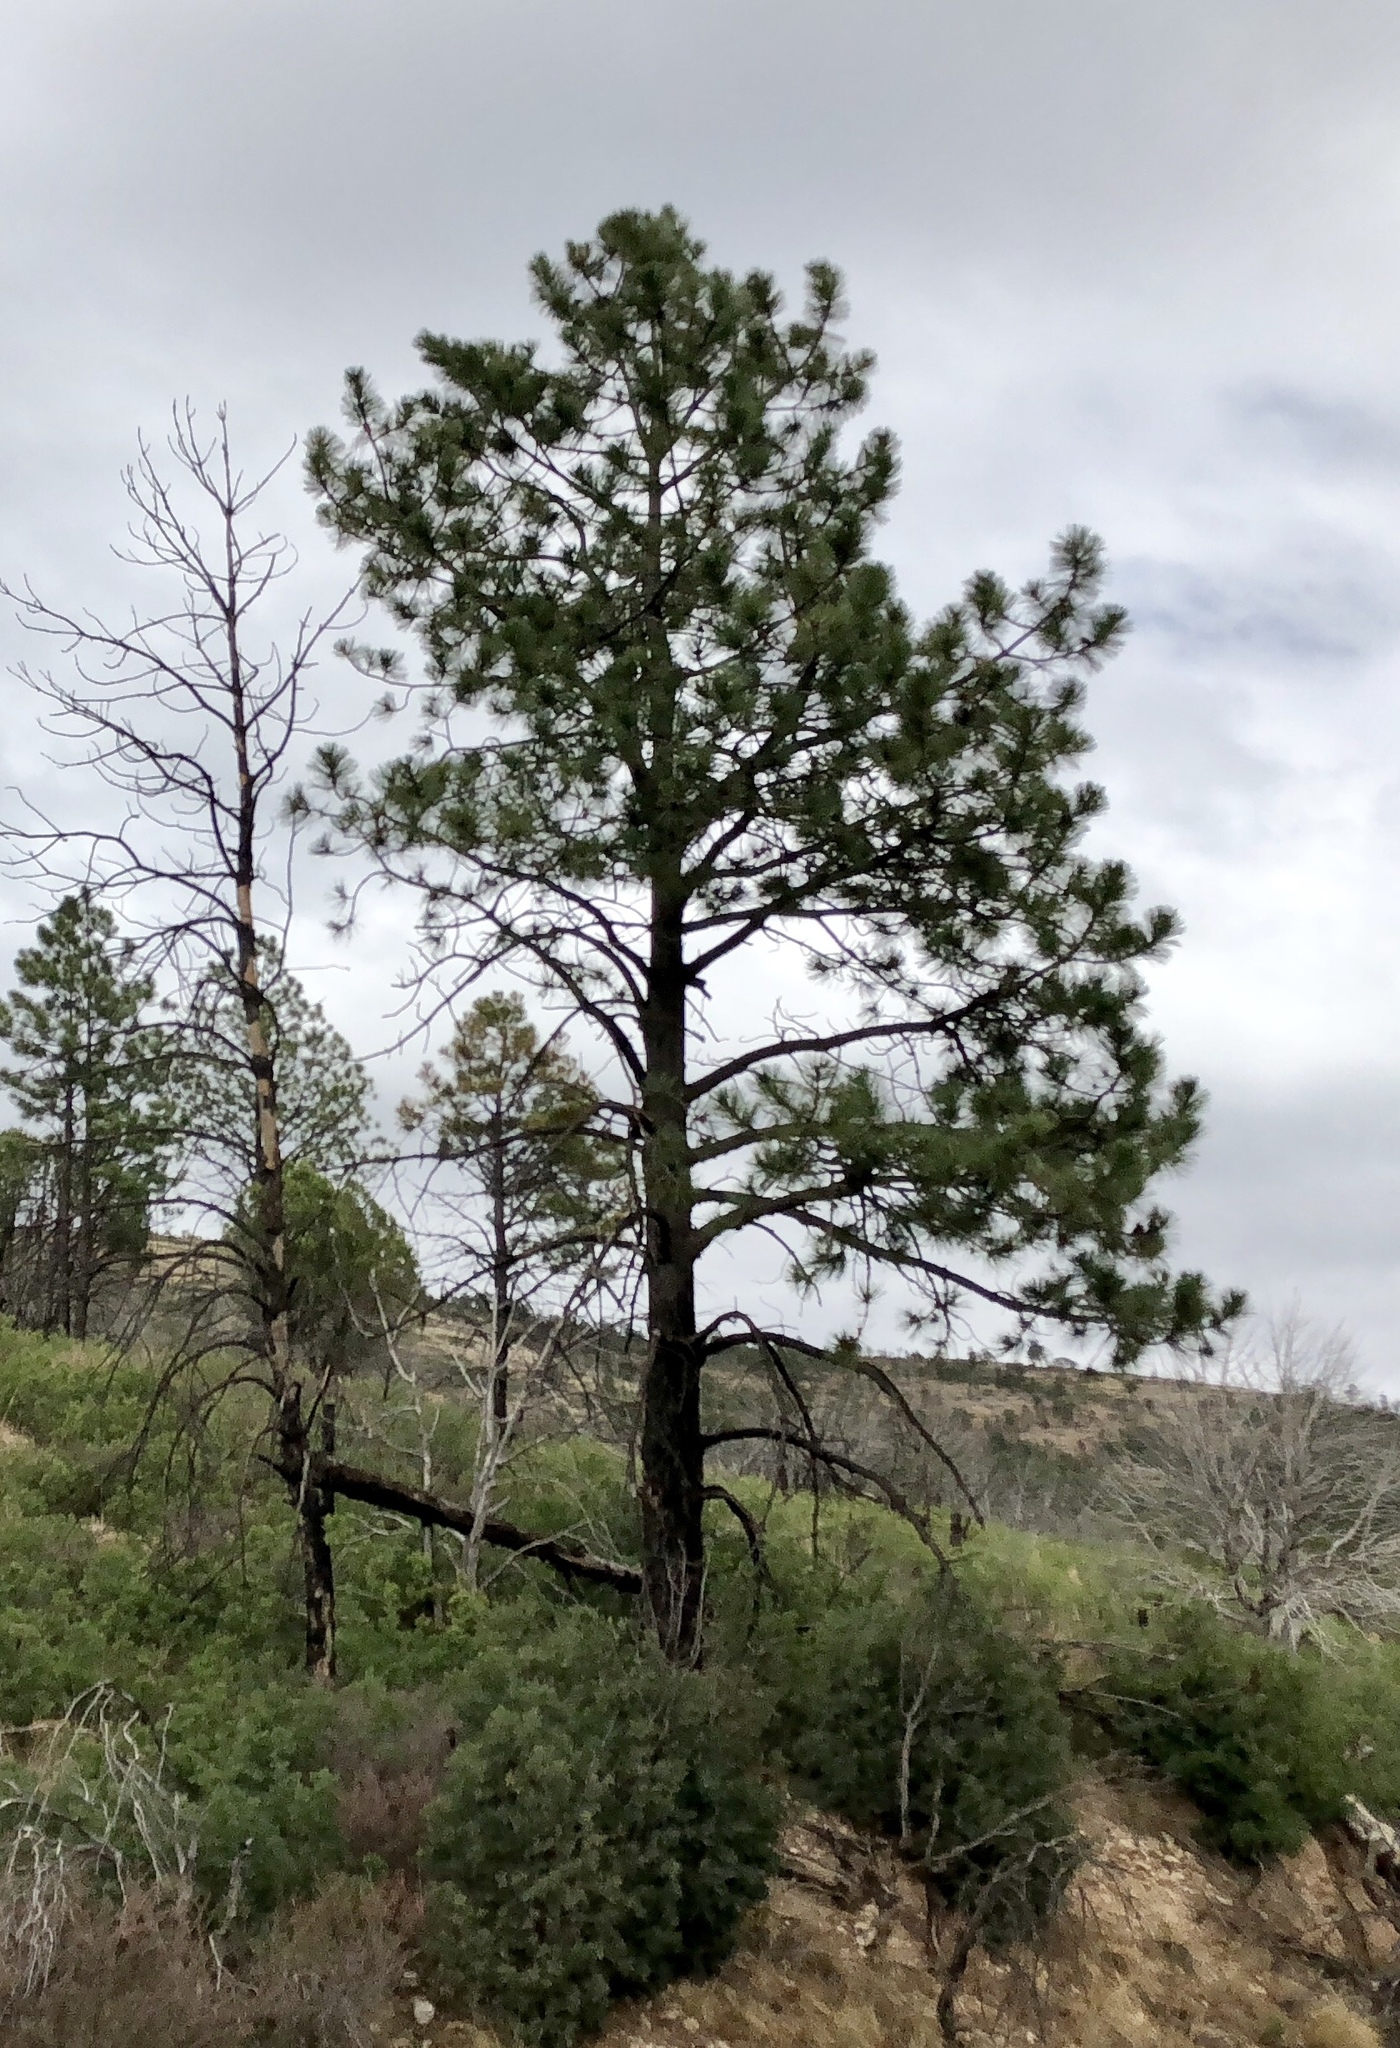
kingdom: Plantae
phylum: Tracheophyta
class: Pinopsida
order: Pinales
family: Pinaceae
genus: Pinus
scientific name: Pinus ponderosa
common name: Western yellow-pine
